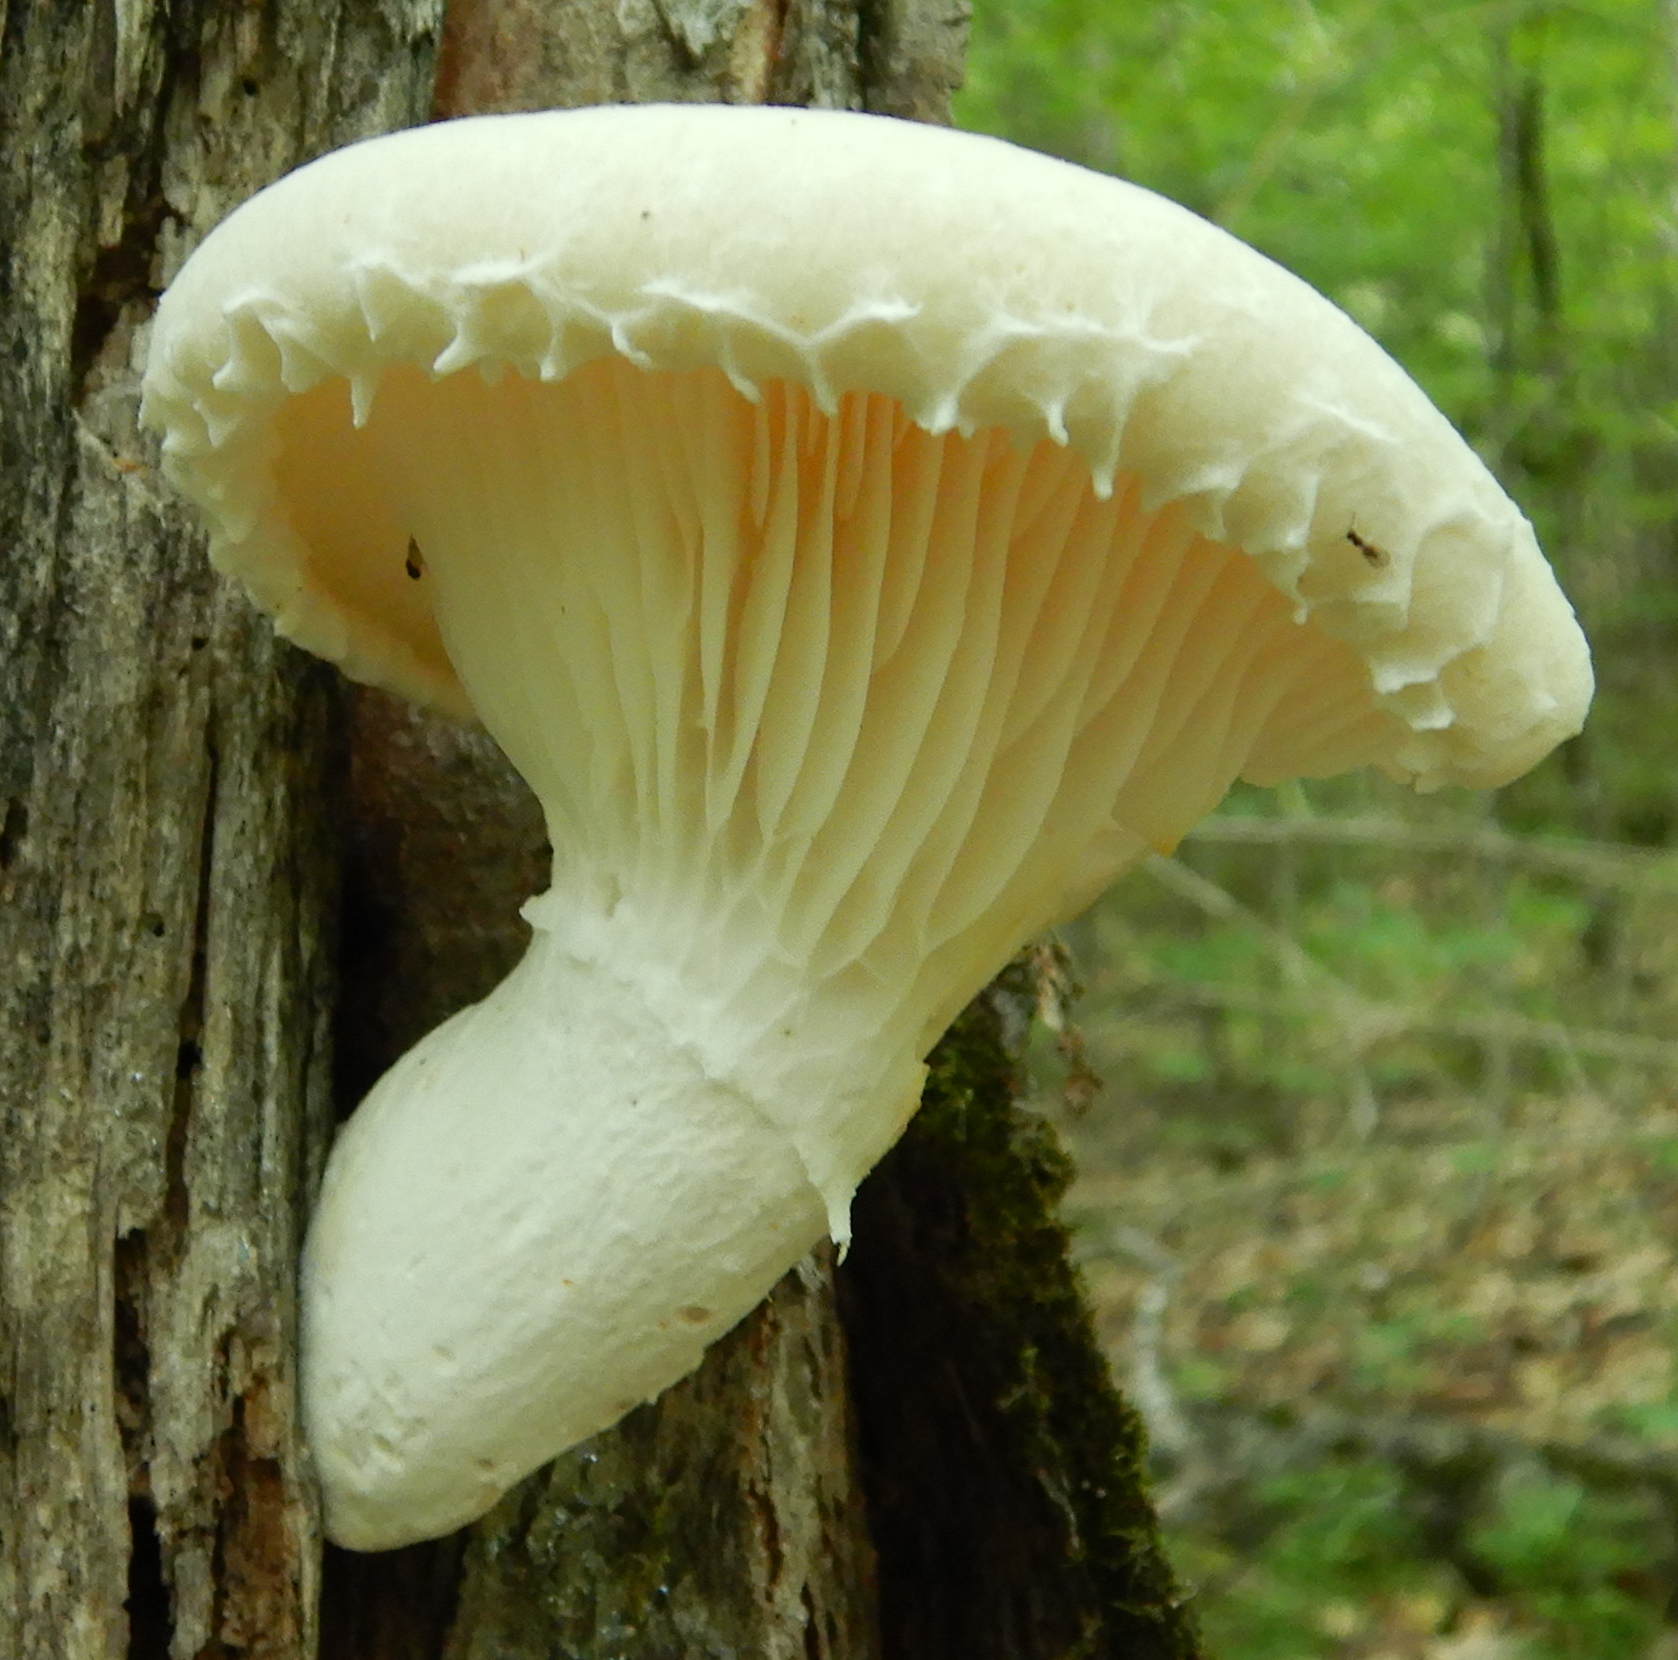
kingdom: Fungi
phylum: Basidiomycota
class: Agaricomycetes
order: Polyporales
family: Polyporaceae
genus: Lentinus
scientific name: Lentinus levis
